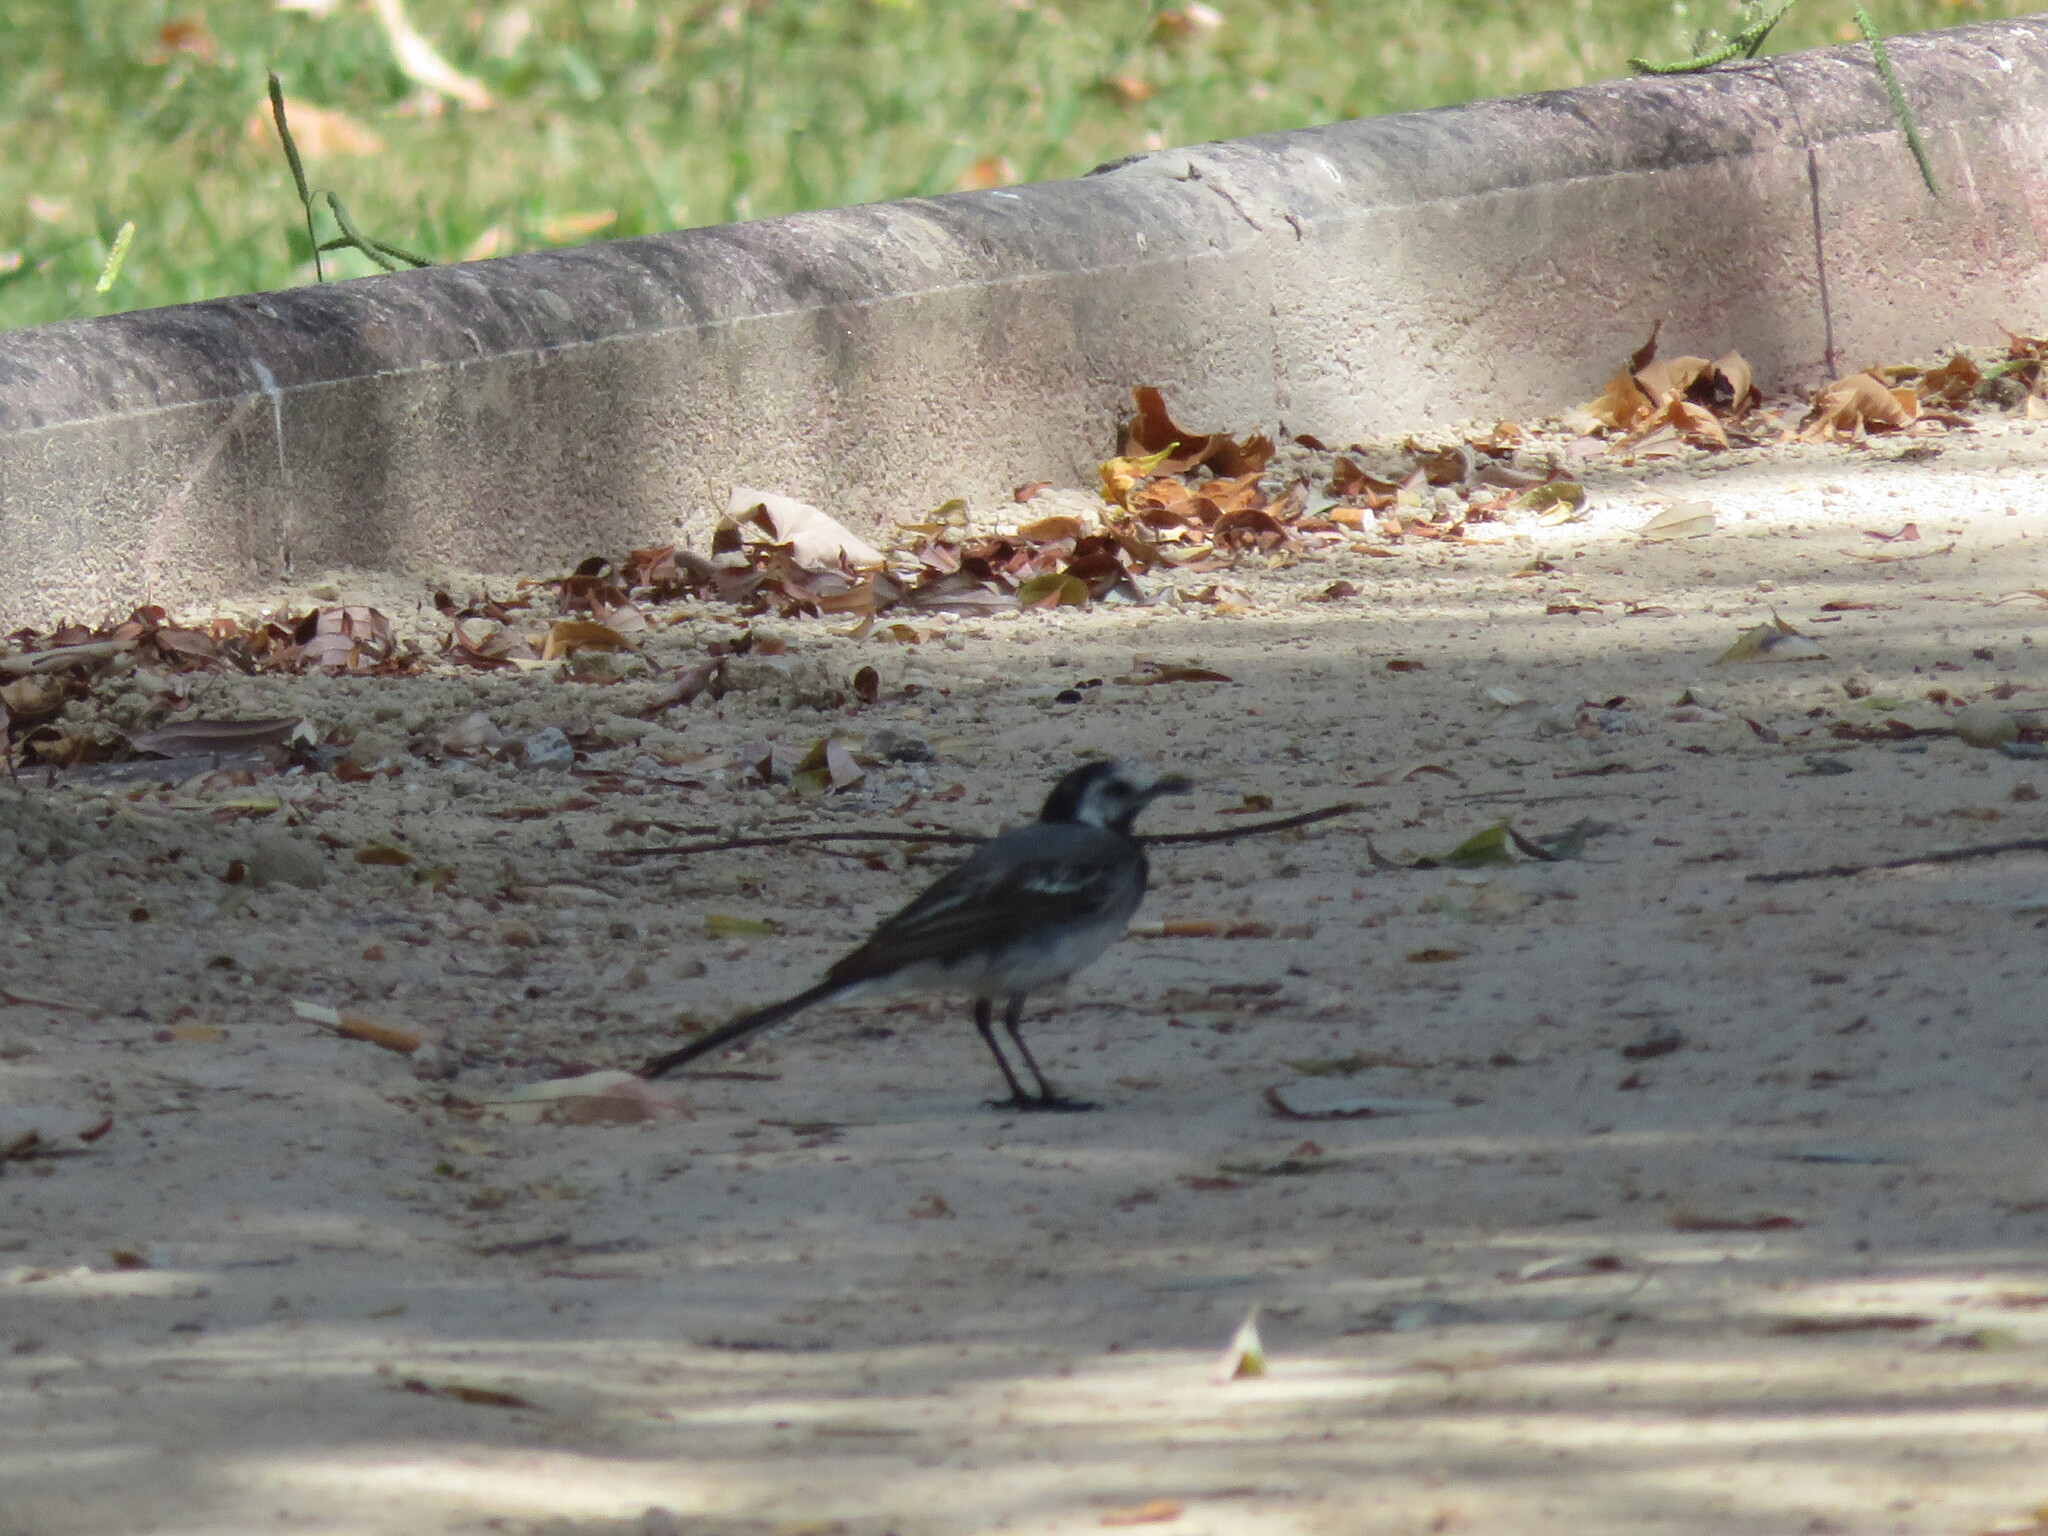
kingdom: Animalia
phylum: Chordata
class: Aves
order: Passeriformes
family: Motacillidae
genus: Motacilla
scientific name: Motacilla alba
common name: White wagtail
